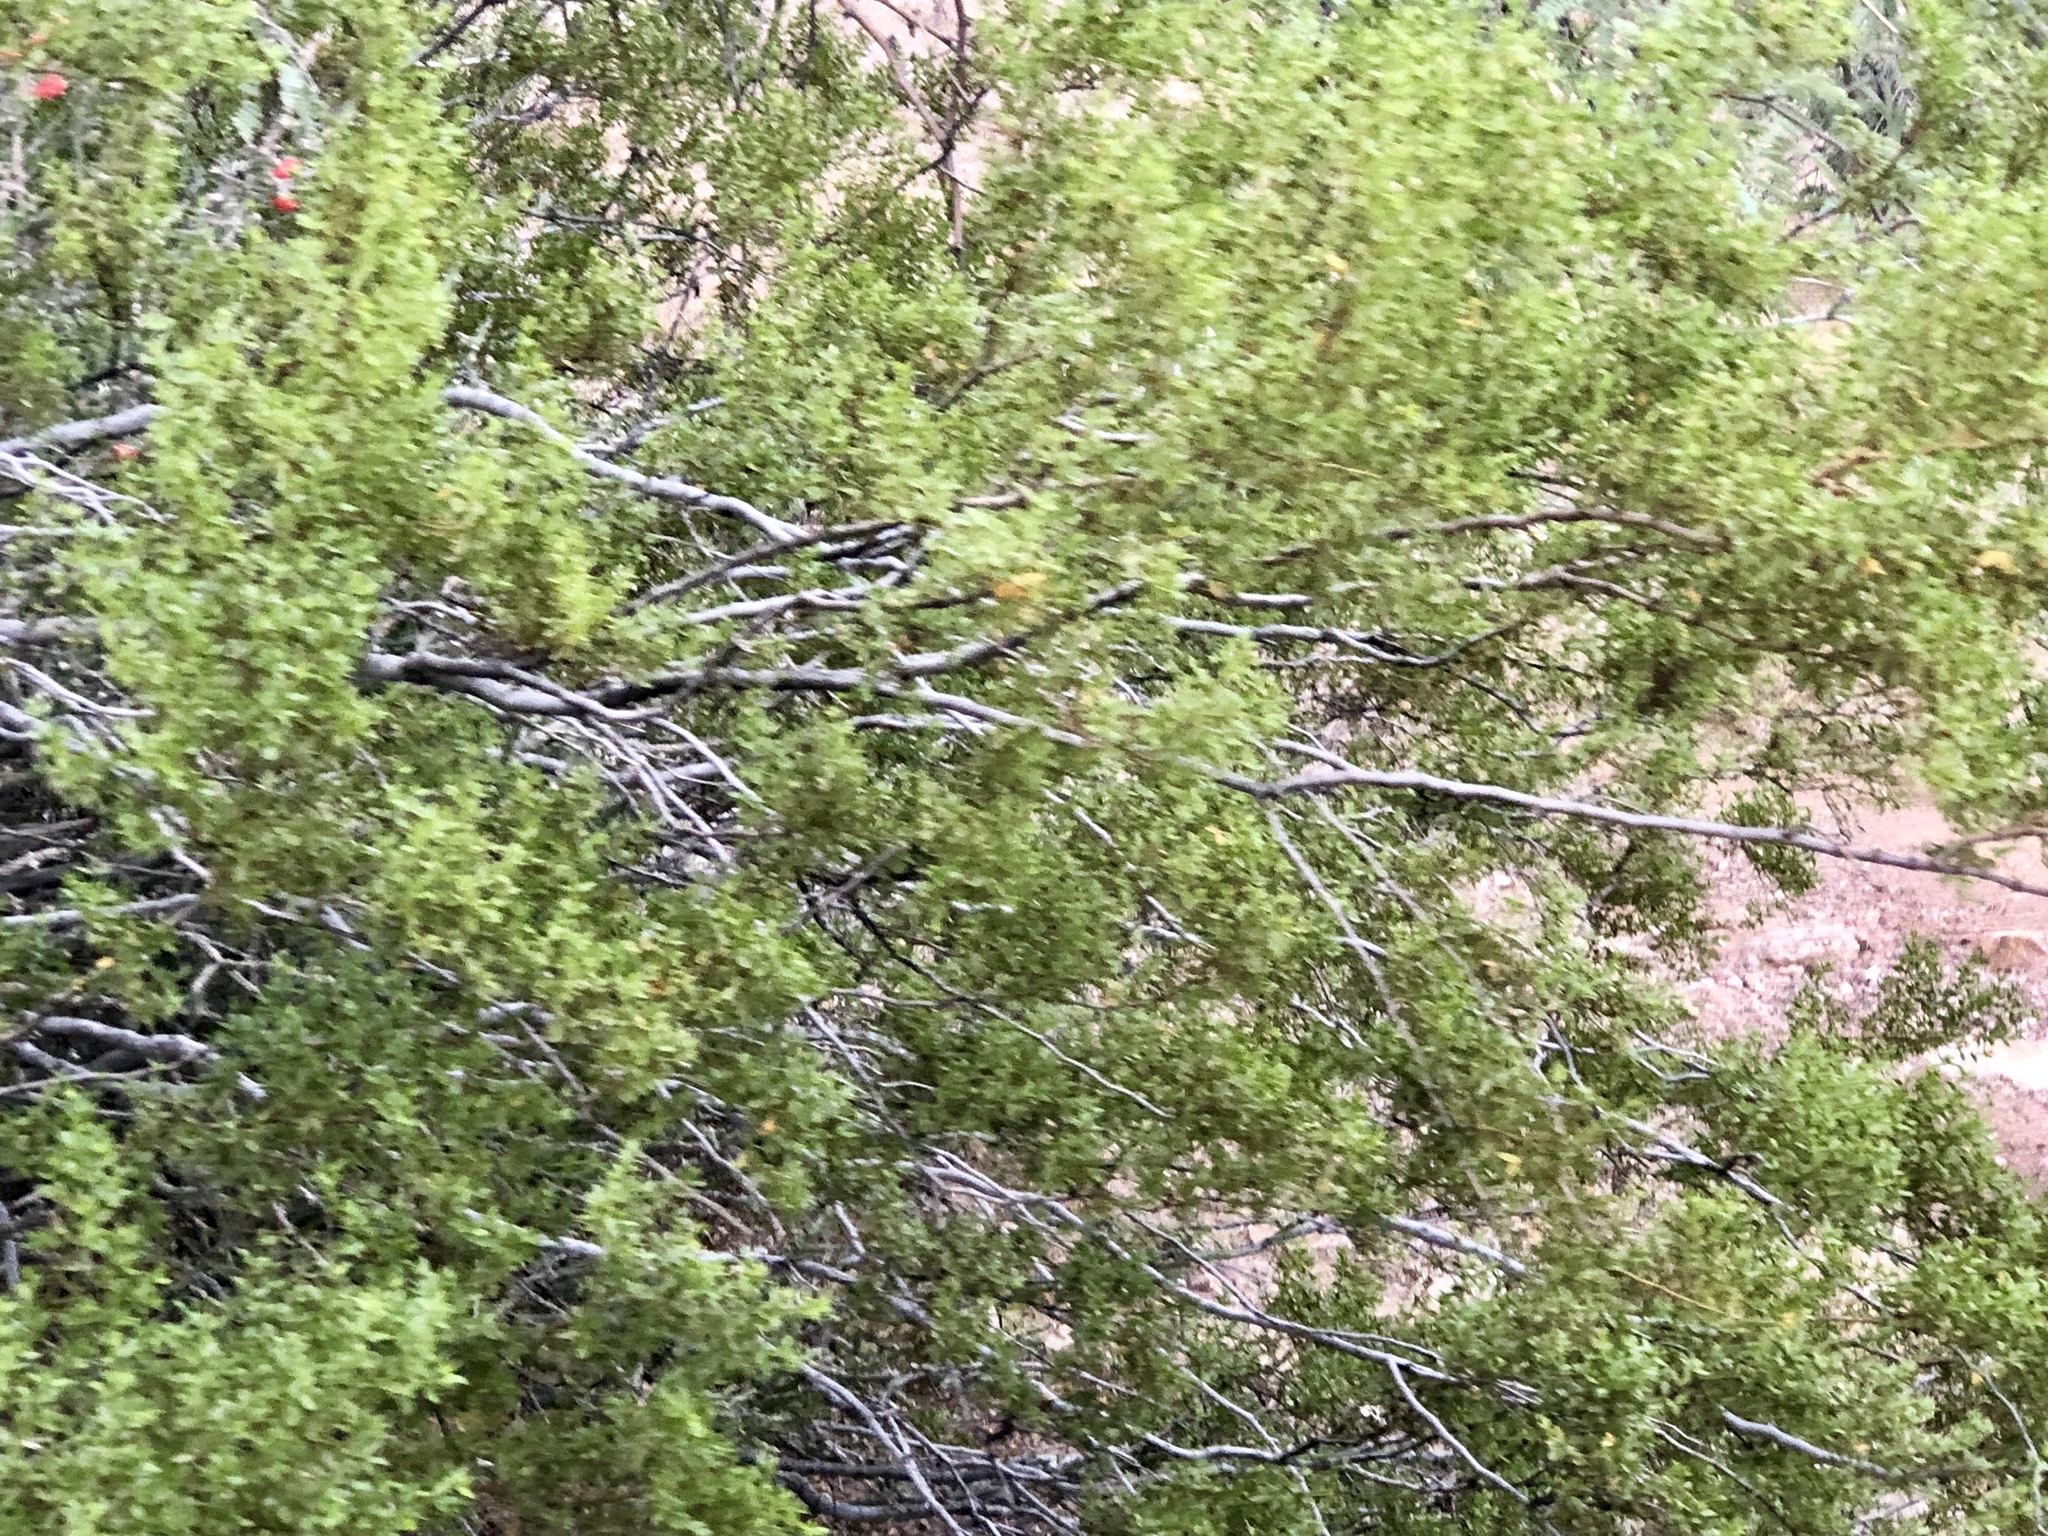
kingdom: Plantae
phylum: Tracheophyta
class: Magnoliopsida
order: Zygophyllales
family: Zygophyllaceae
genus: Larrea
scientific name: Larrea tridentata
